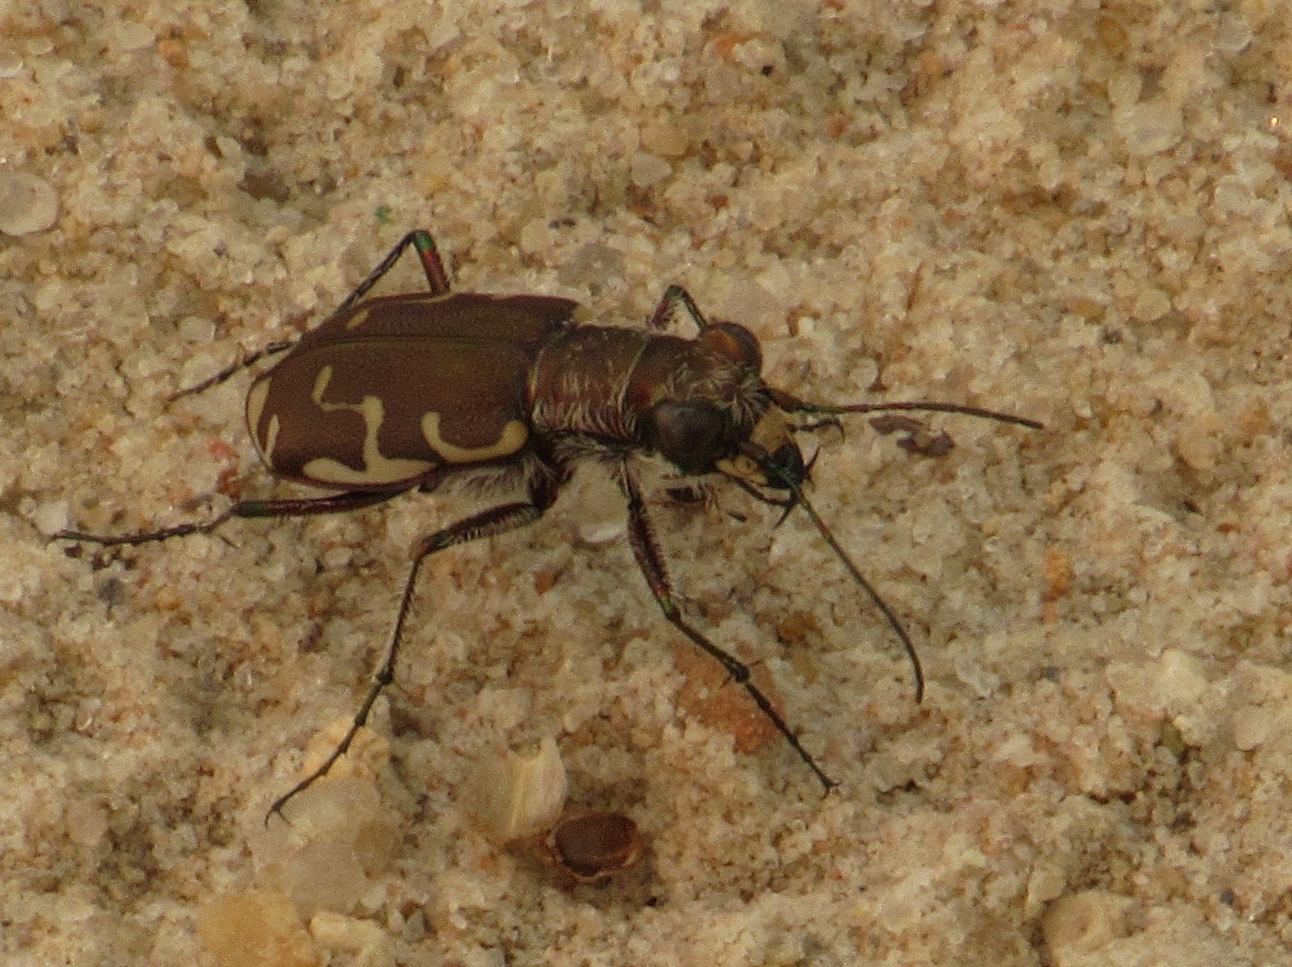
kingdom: Animalia
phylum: Arthropoda
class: Insecta
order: Coleoptera
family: Carabidae
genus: Cicindela
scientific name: Cicindela repanda
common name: Bronzed tiger beetle
